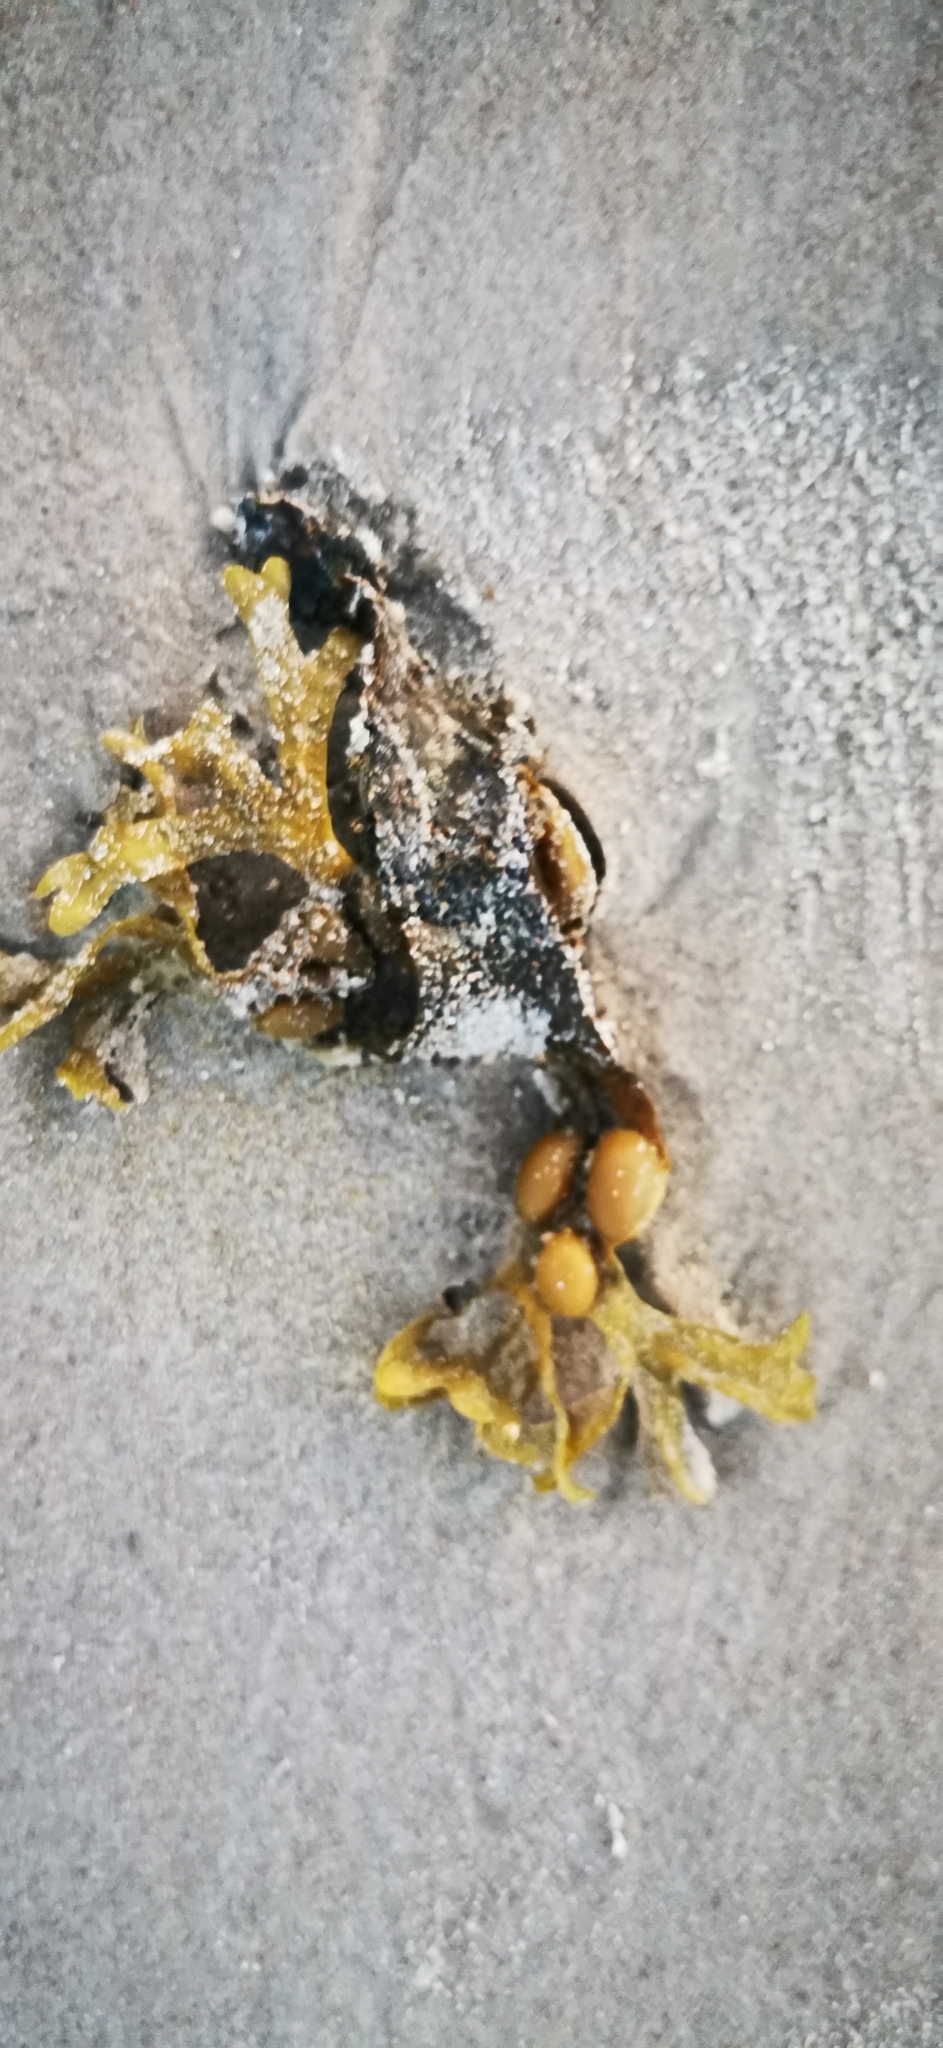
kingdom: Chromista
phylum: Ochrophyta
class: Phaeophyceae
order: Fucales
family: Fucaceae
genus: Fucus
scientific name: Fucus vesiculosus
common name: Bladder wrack
